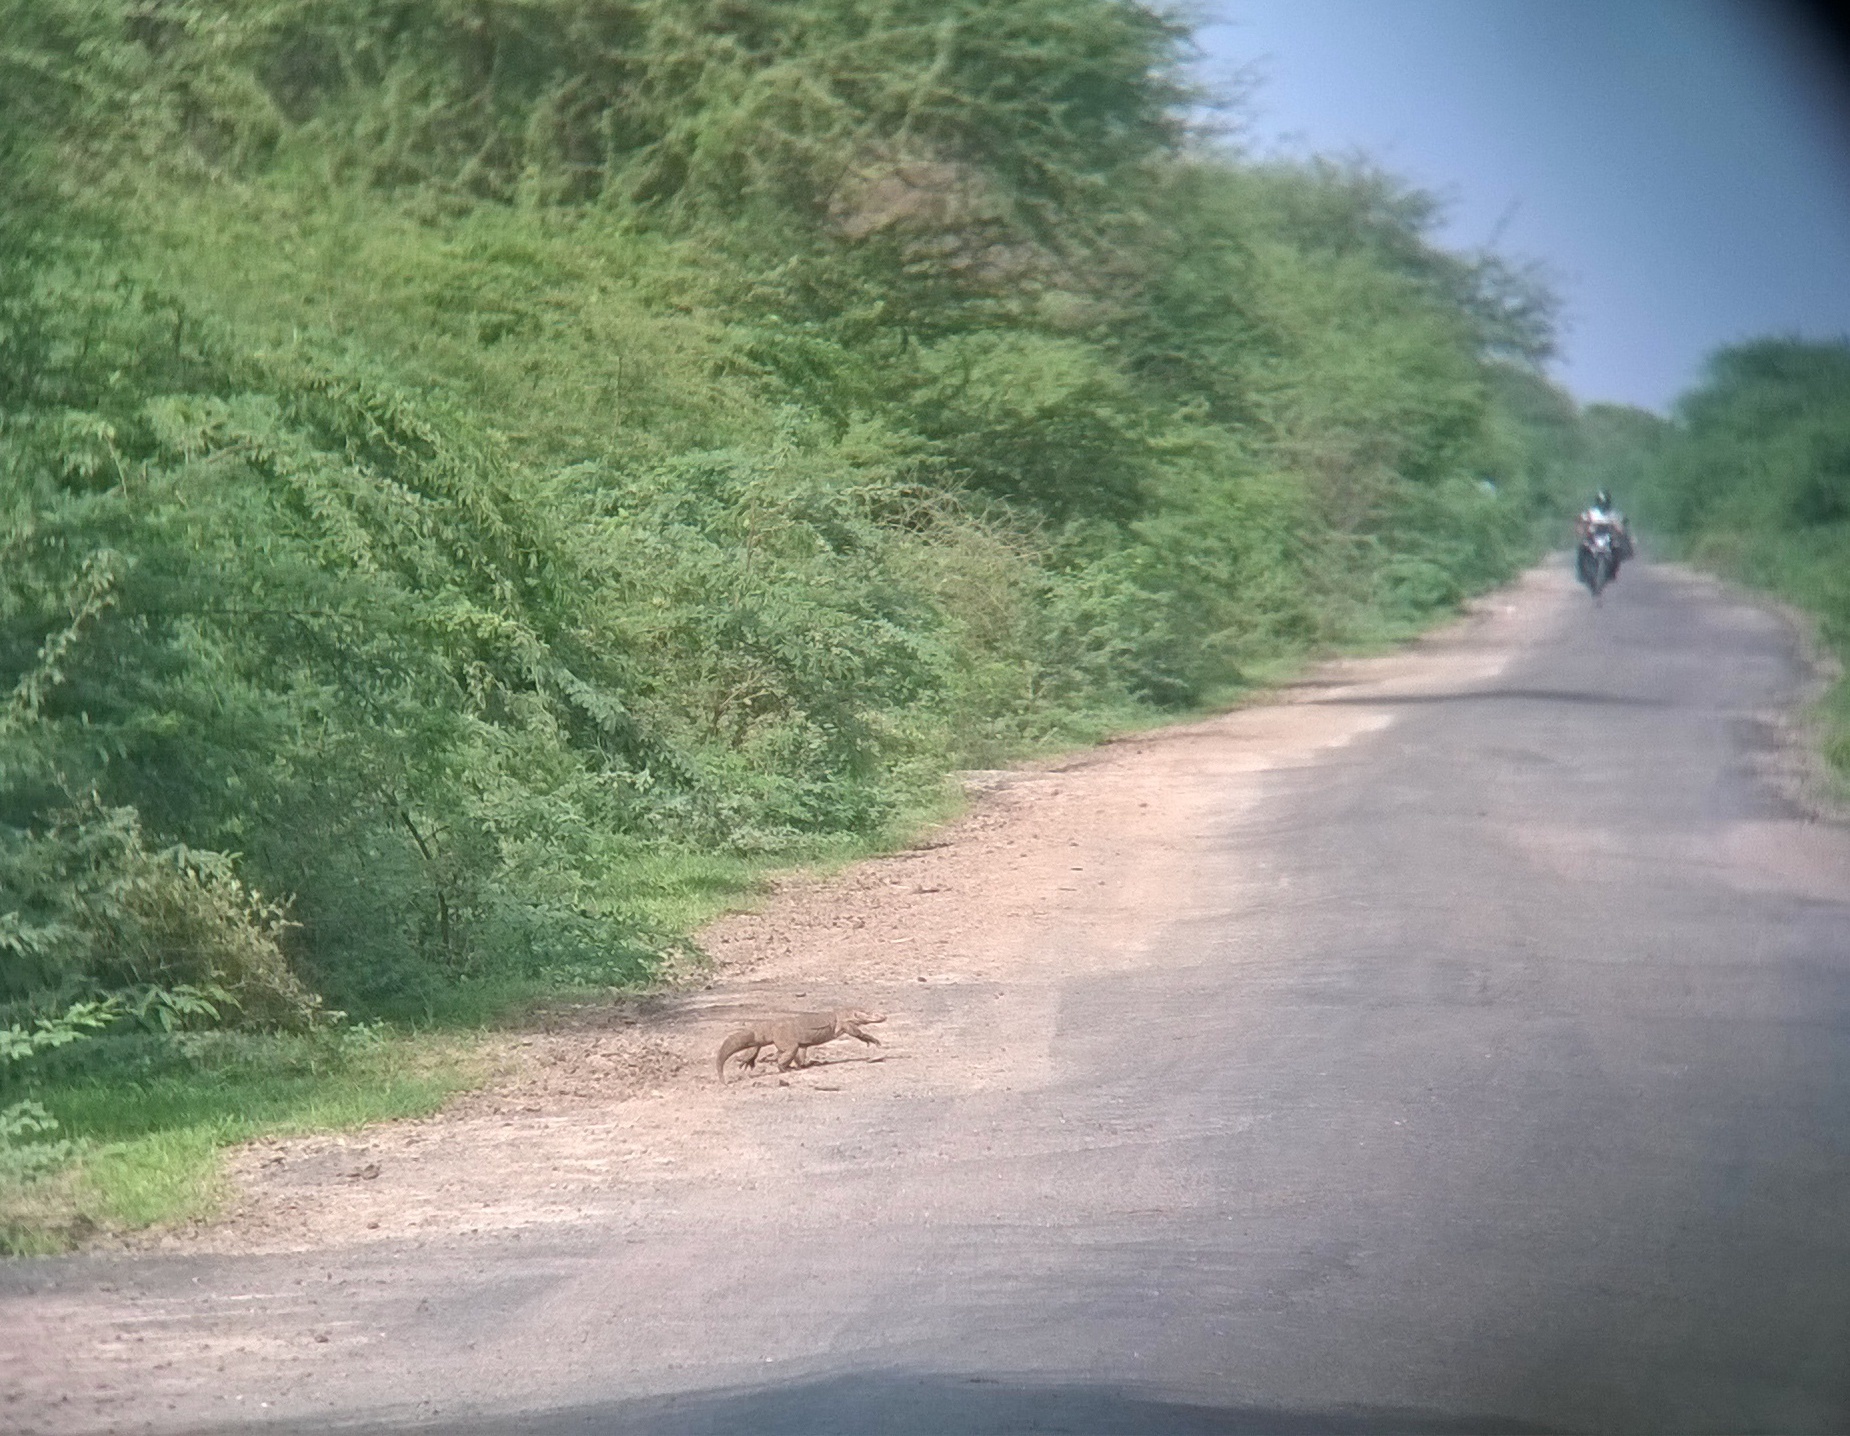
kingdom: Animalia
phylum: Chordata
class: Squamata
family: Varanidae
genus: Varanus
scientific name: Varanus bengalensis
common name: Bengal monitor
